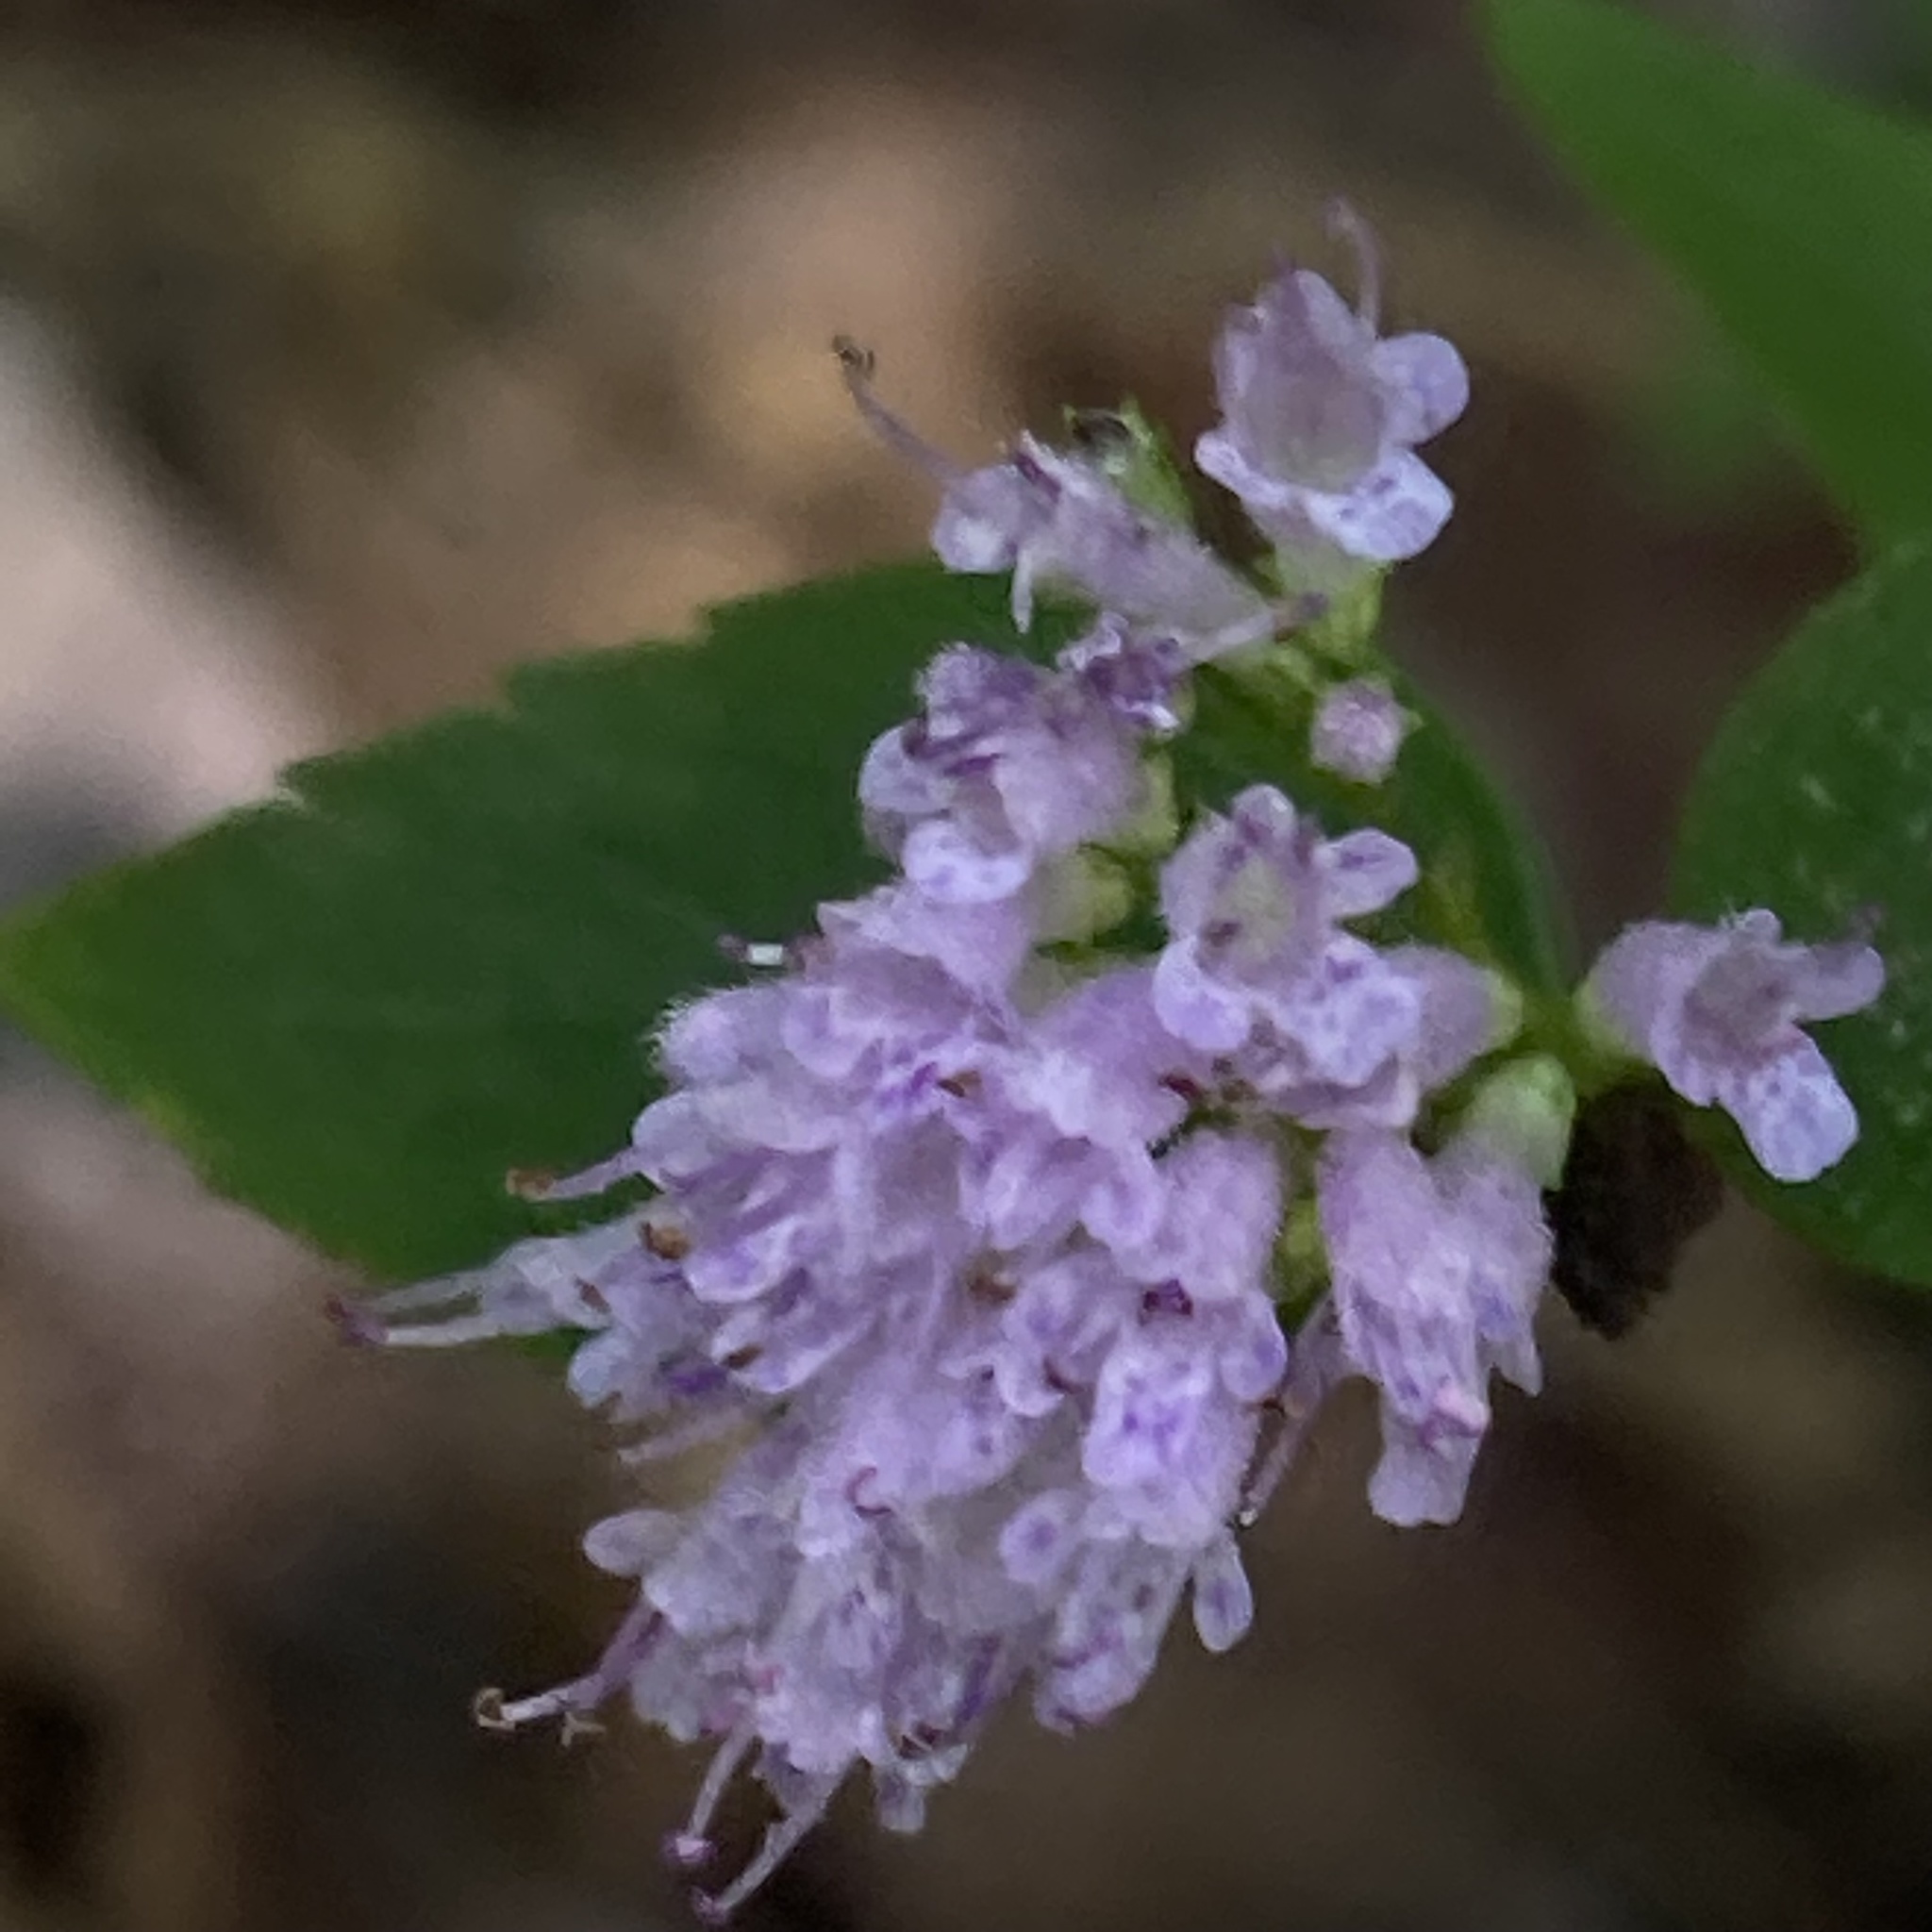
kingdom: Plantae
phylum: Tracheophyta
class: Magnoliopsida
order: Lamiales
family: Lamiaceae
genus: Cunila
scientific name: Cunila origanoides
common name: American dittany
